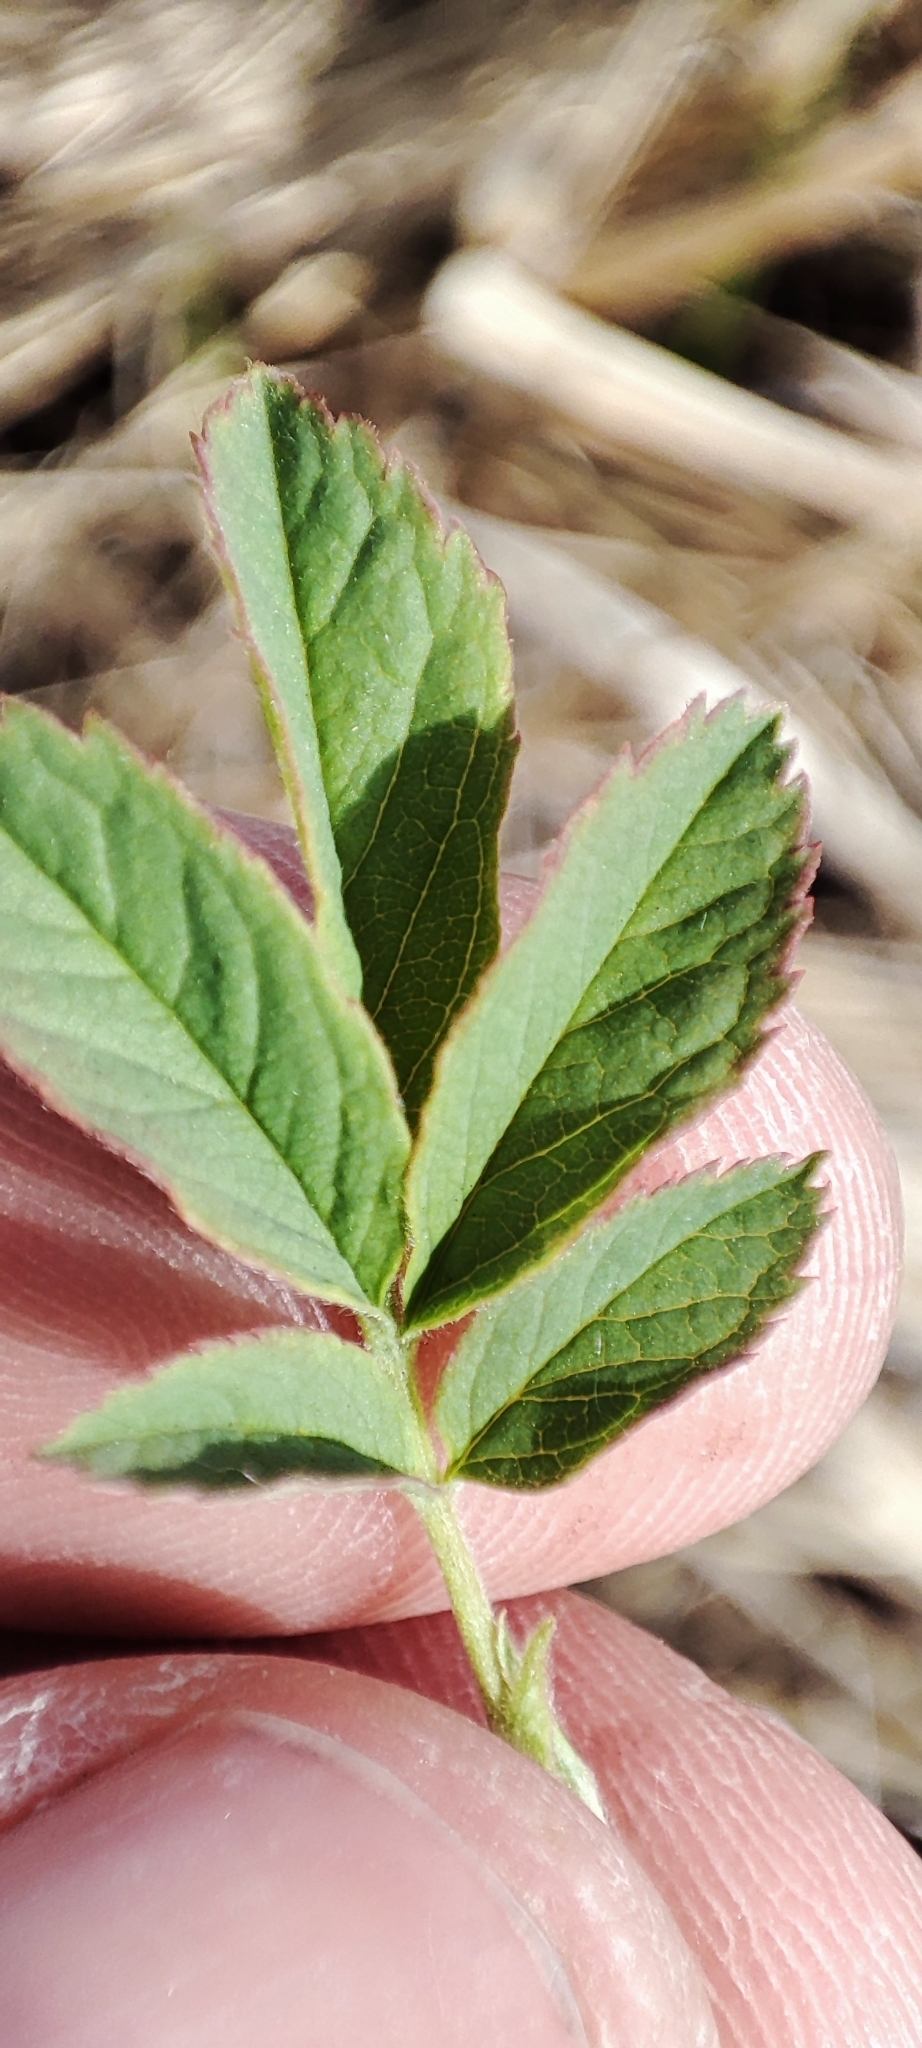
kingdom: Plantae
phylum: Tracheophyta
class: Magnoliopsida
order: Rosales
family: Rosaceae
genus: Rosa
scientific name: Rosa majalis
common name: Cinnamon rose
